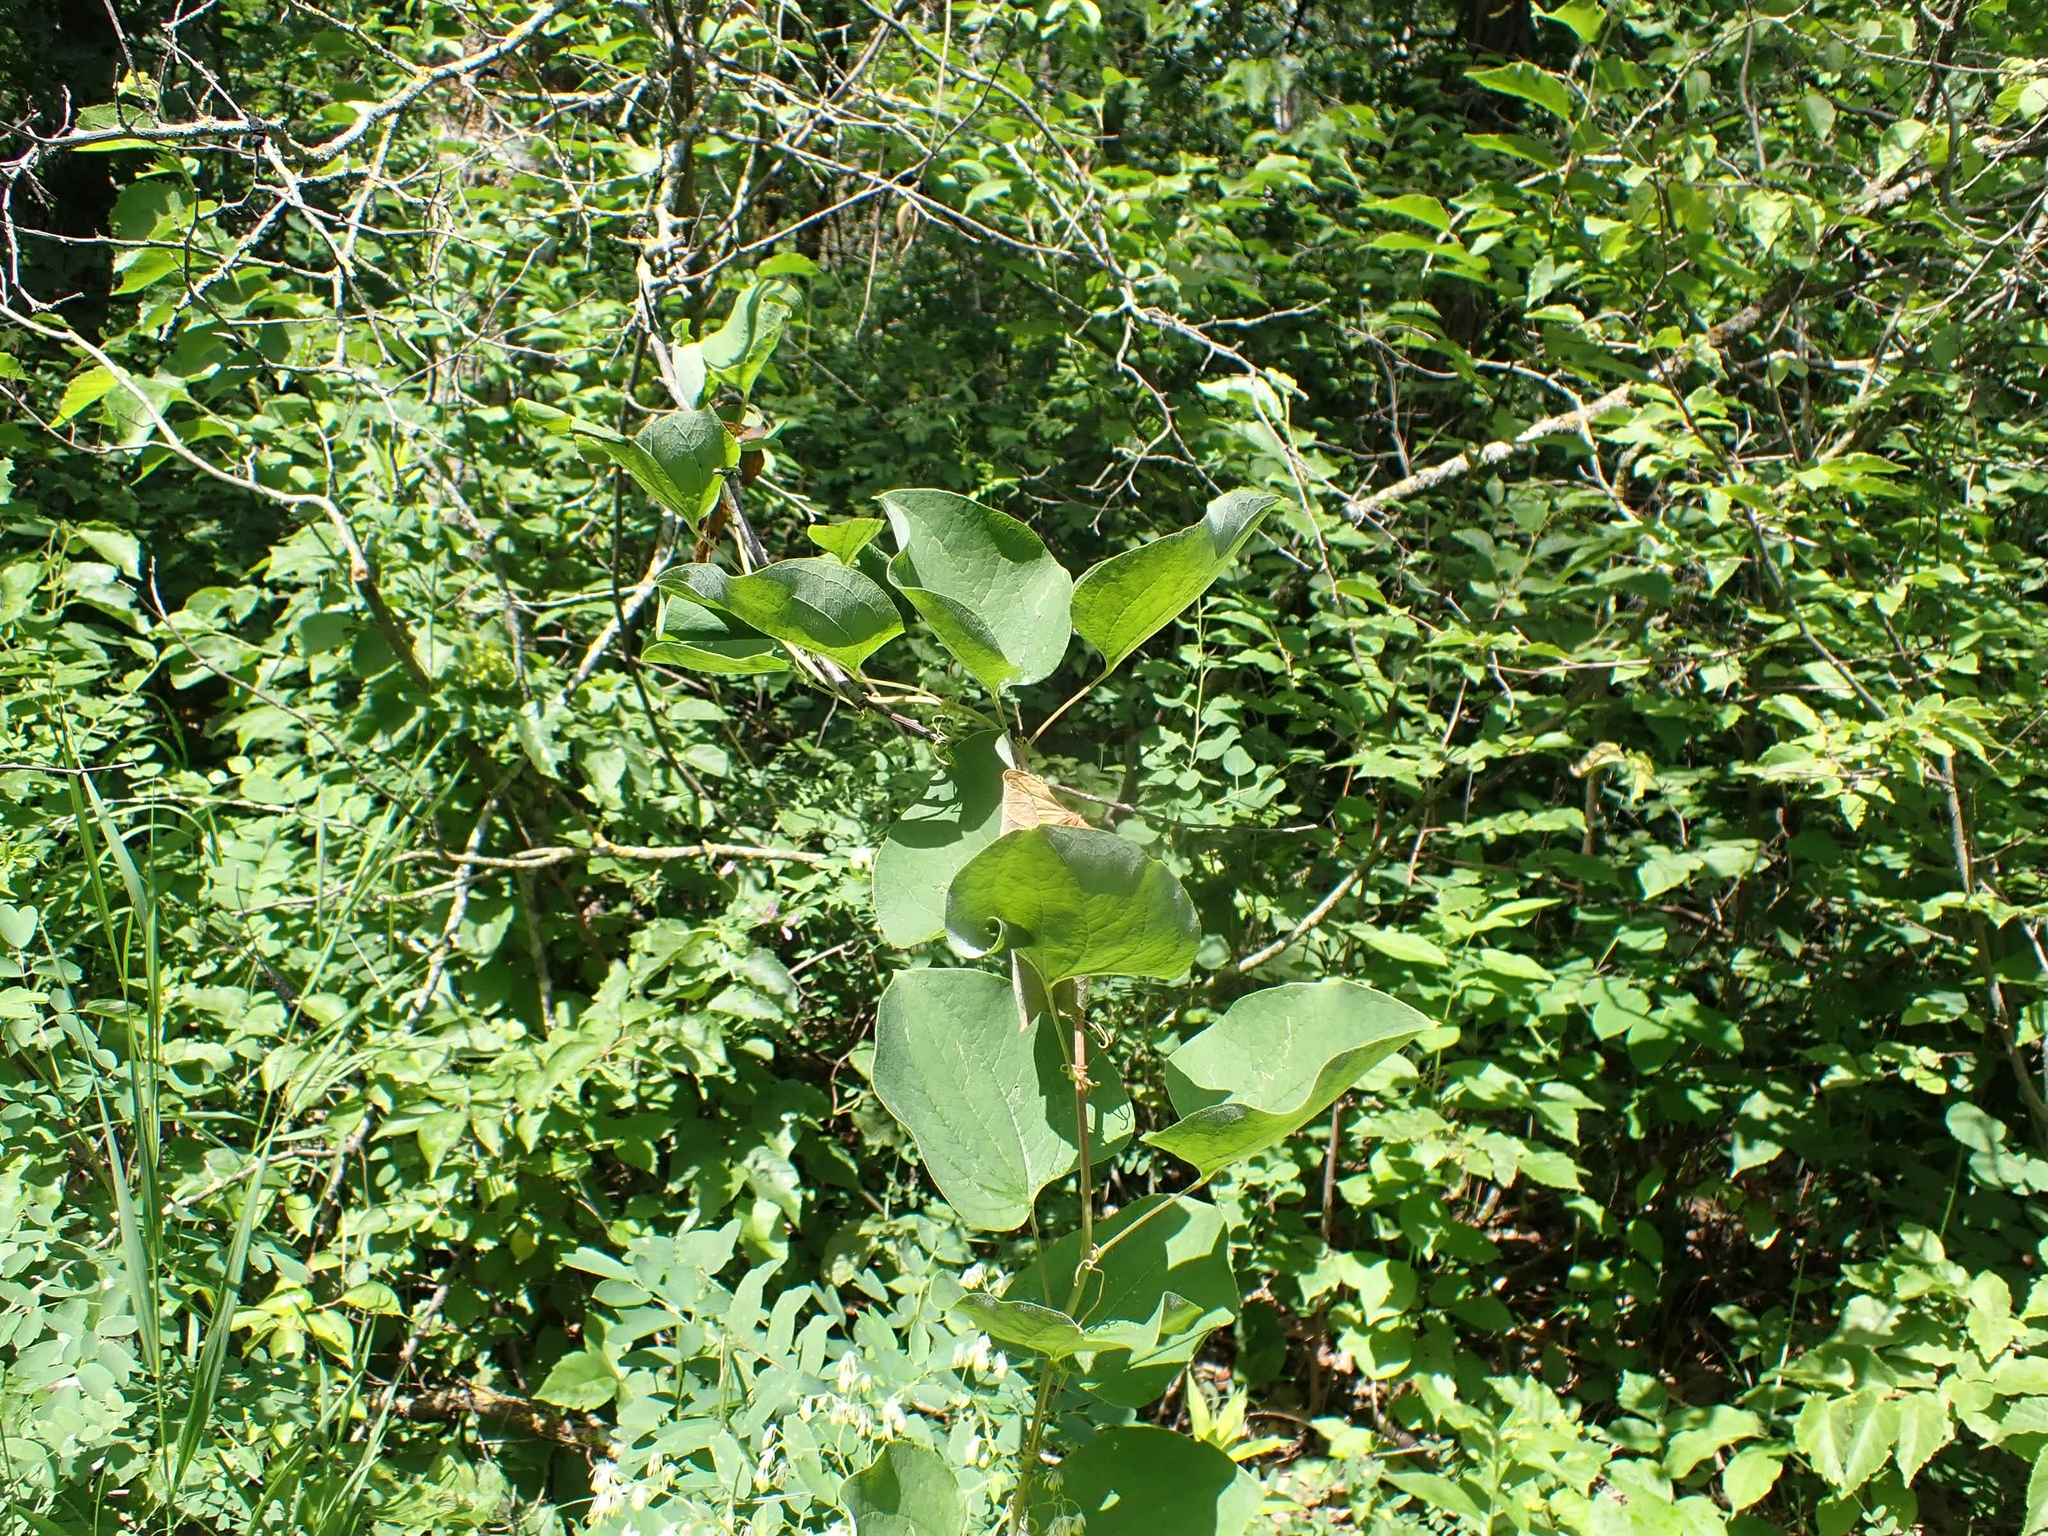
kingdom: Plantae
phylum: Tracheophyta
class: Liliopsida
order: Liliales
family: Smilacaceae
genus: Smilax
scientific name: Smilax lasioneura
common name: Blue ridge carrionflower
